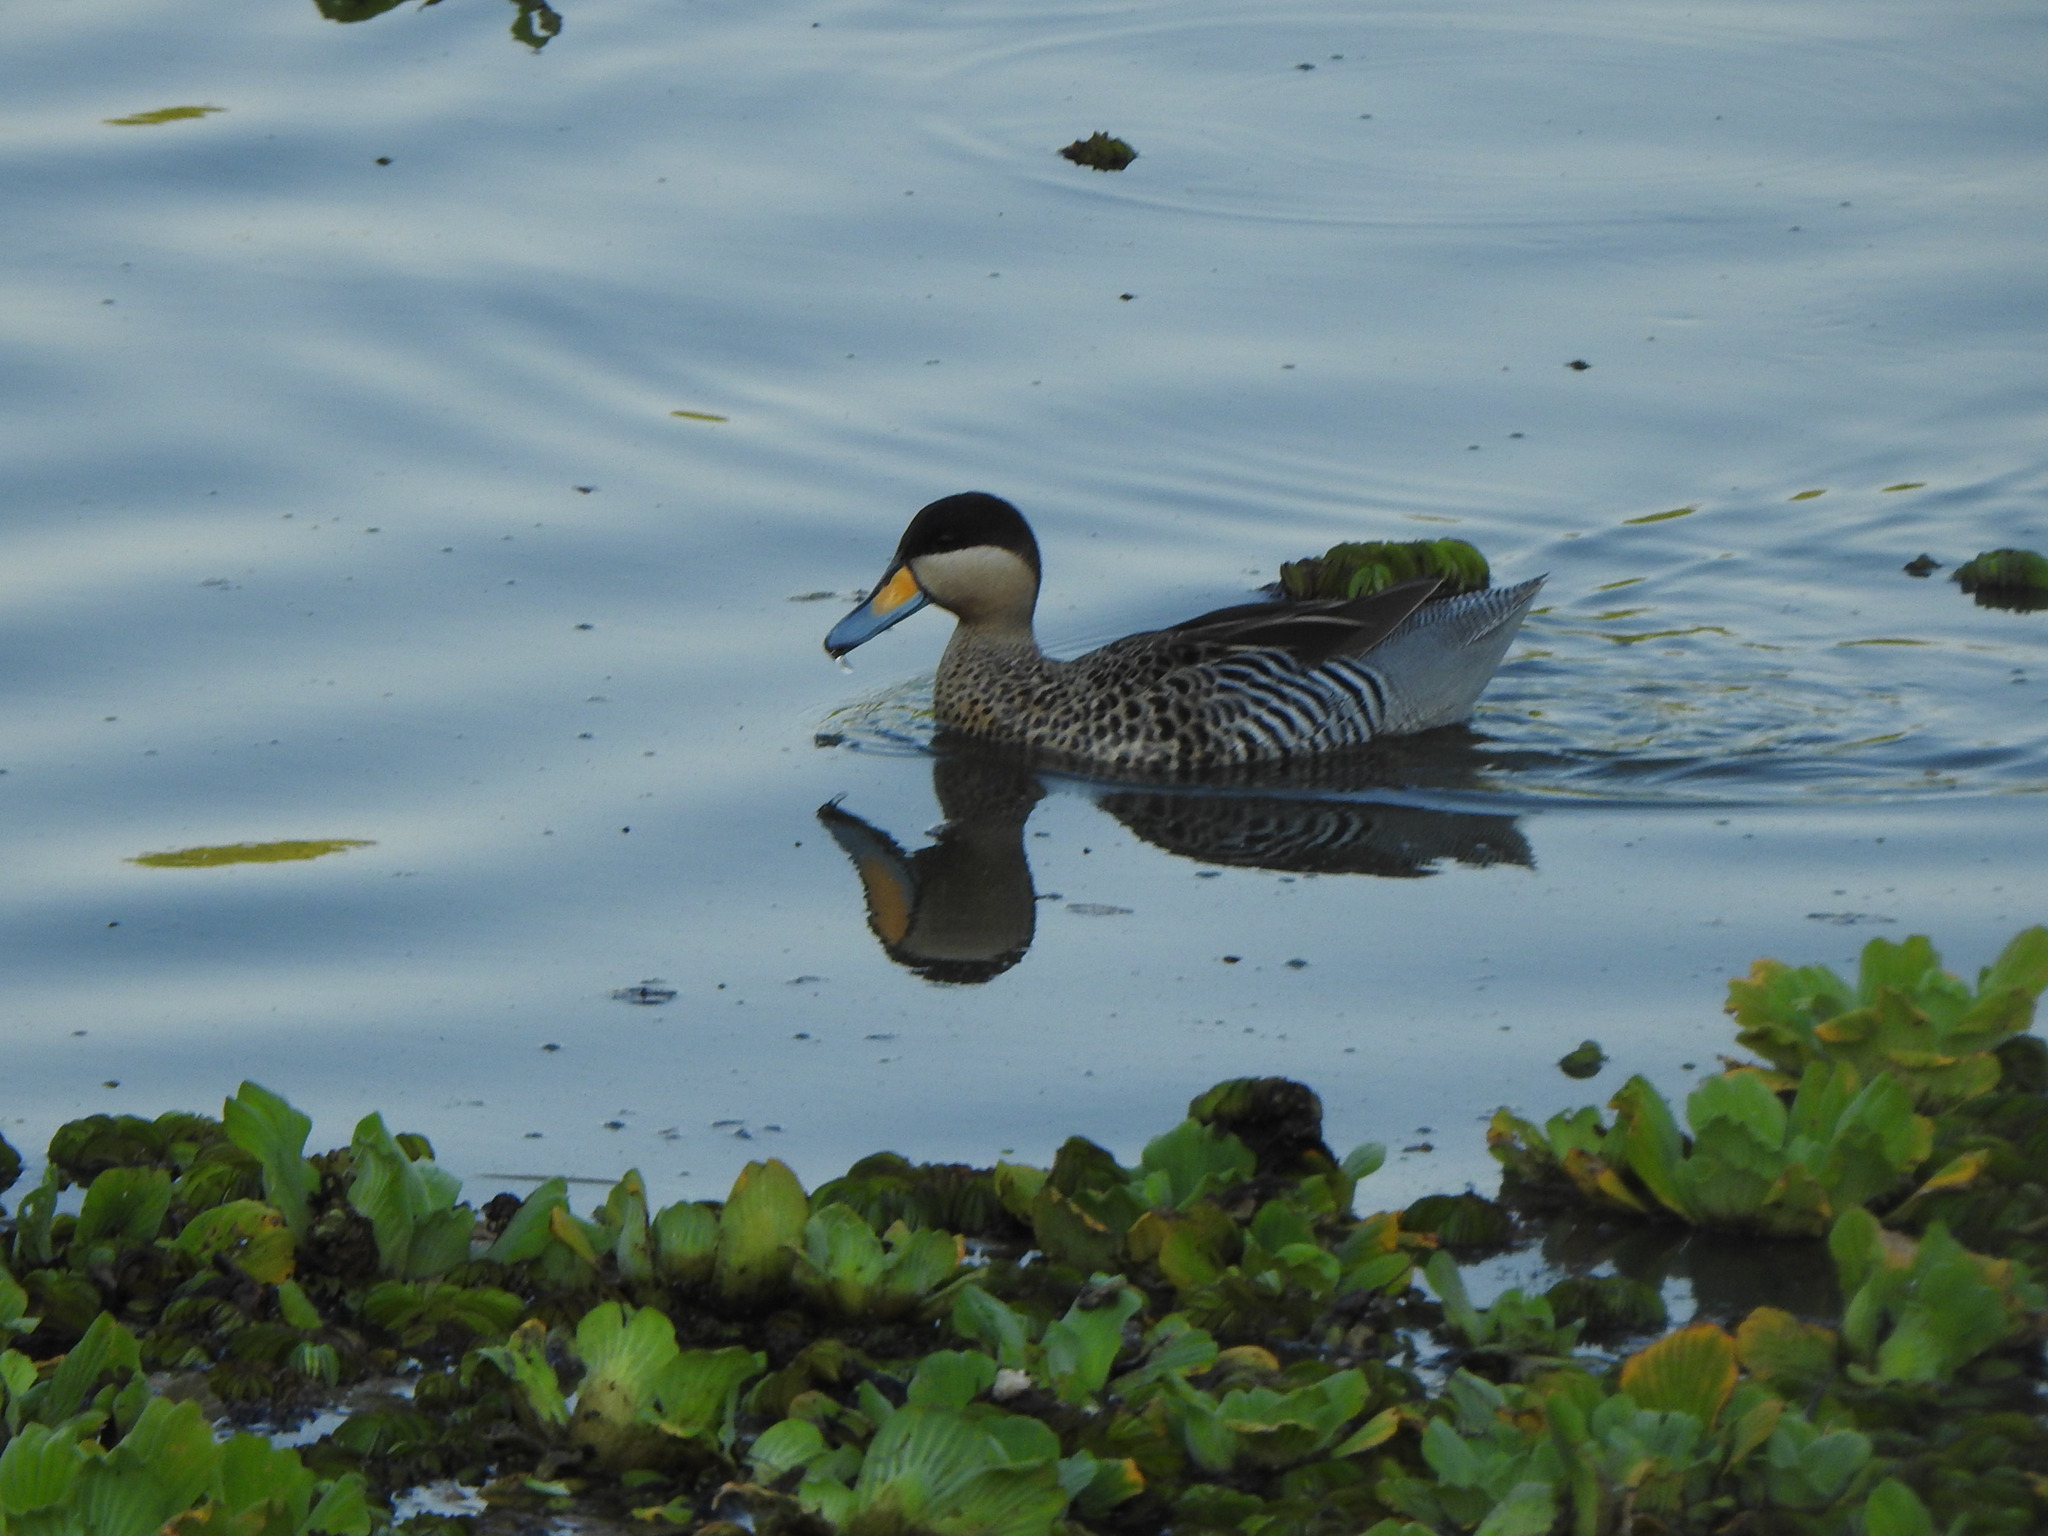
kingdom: Animalia
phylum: Chordata
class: Aves
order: Anseriformes
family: Anatidae
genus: Spatula
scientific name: Spatula versicolor
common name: Silver teal
